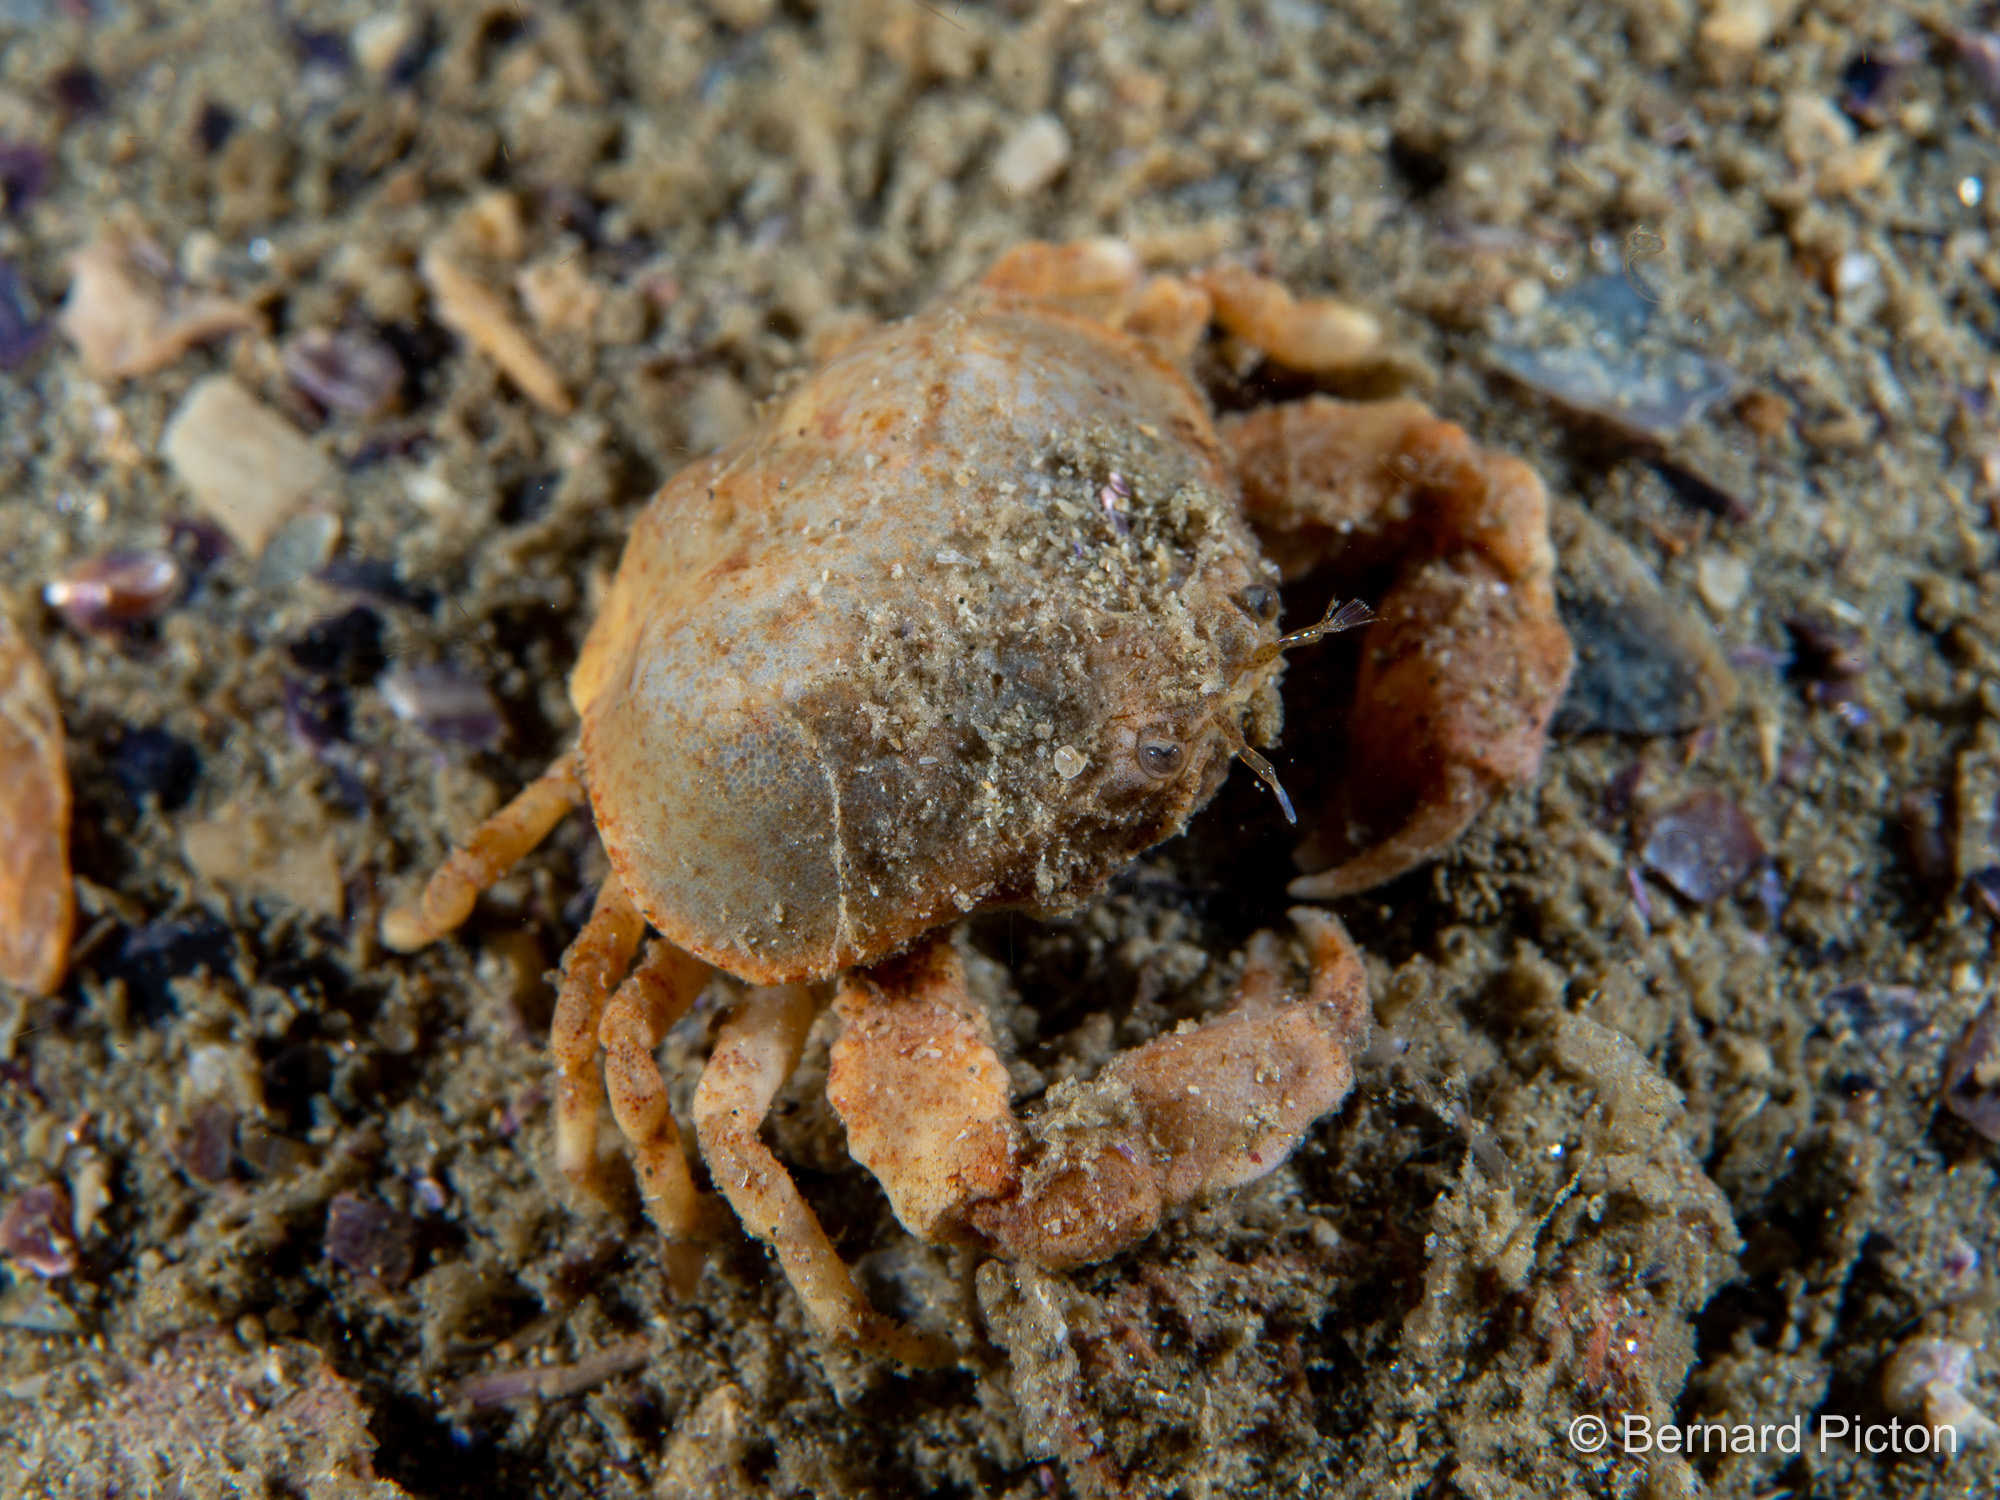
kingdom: Animalia
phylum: Arthropoda
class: Malacostraca
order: Decapoda
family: Leucosiidae
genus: Ebalia
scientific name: Ebalia granulosa
